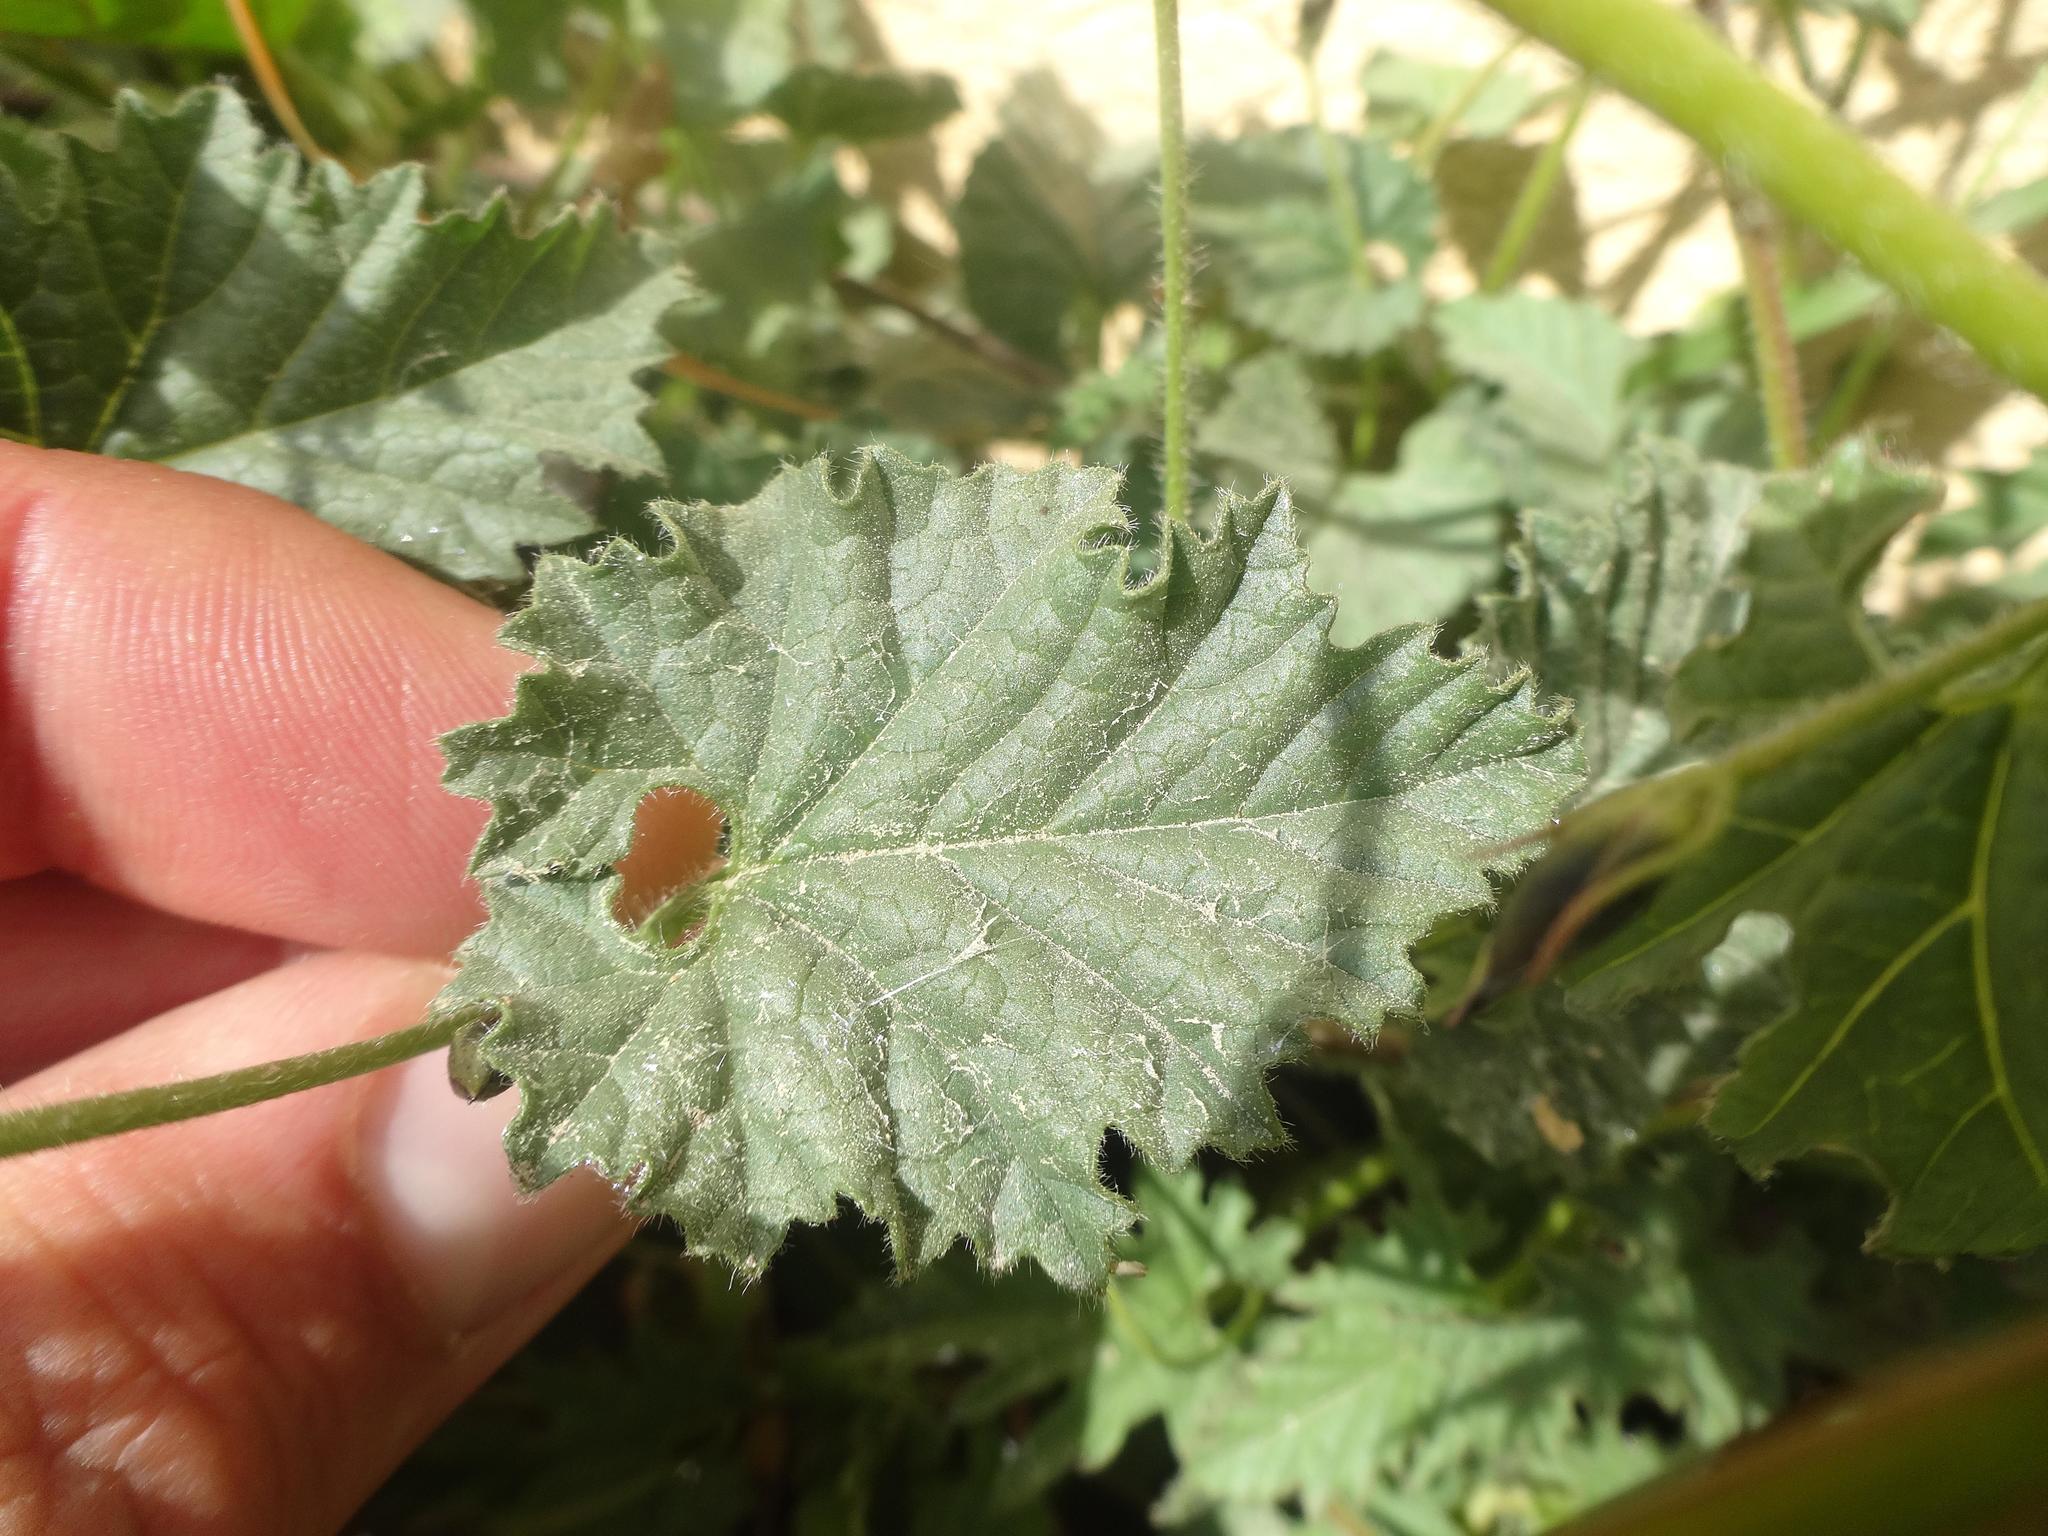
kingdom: Plantae
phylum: Tracheophyta
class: Magnoliopsida
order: Solanales
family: Convolvulaceae
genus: Convolvulus
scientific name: Convolvulus althaeoides
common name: Mallow bindweed
